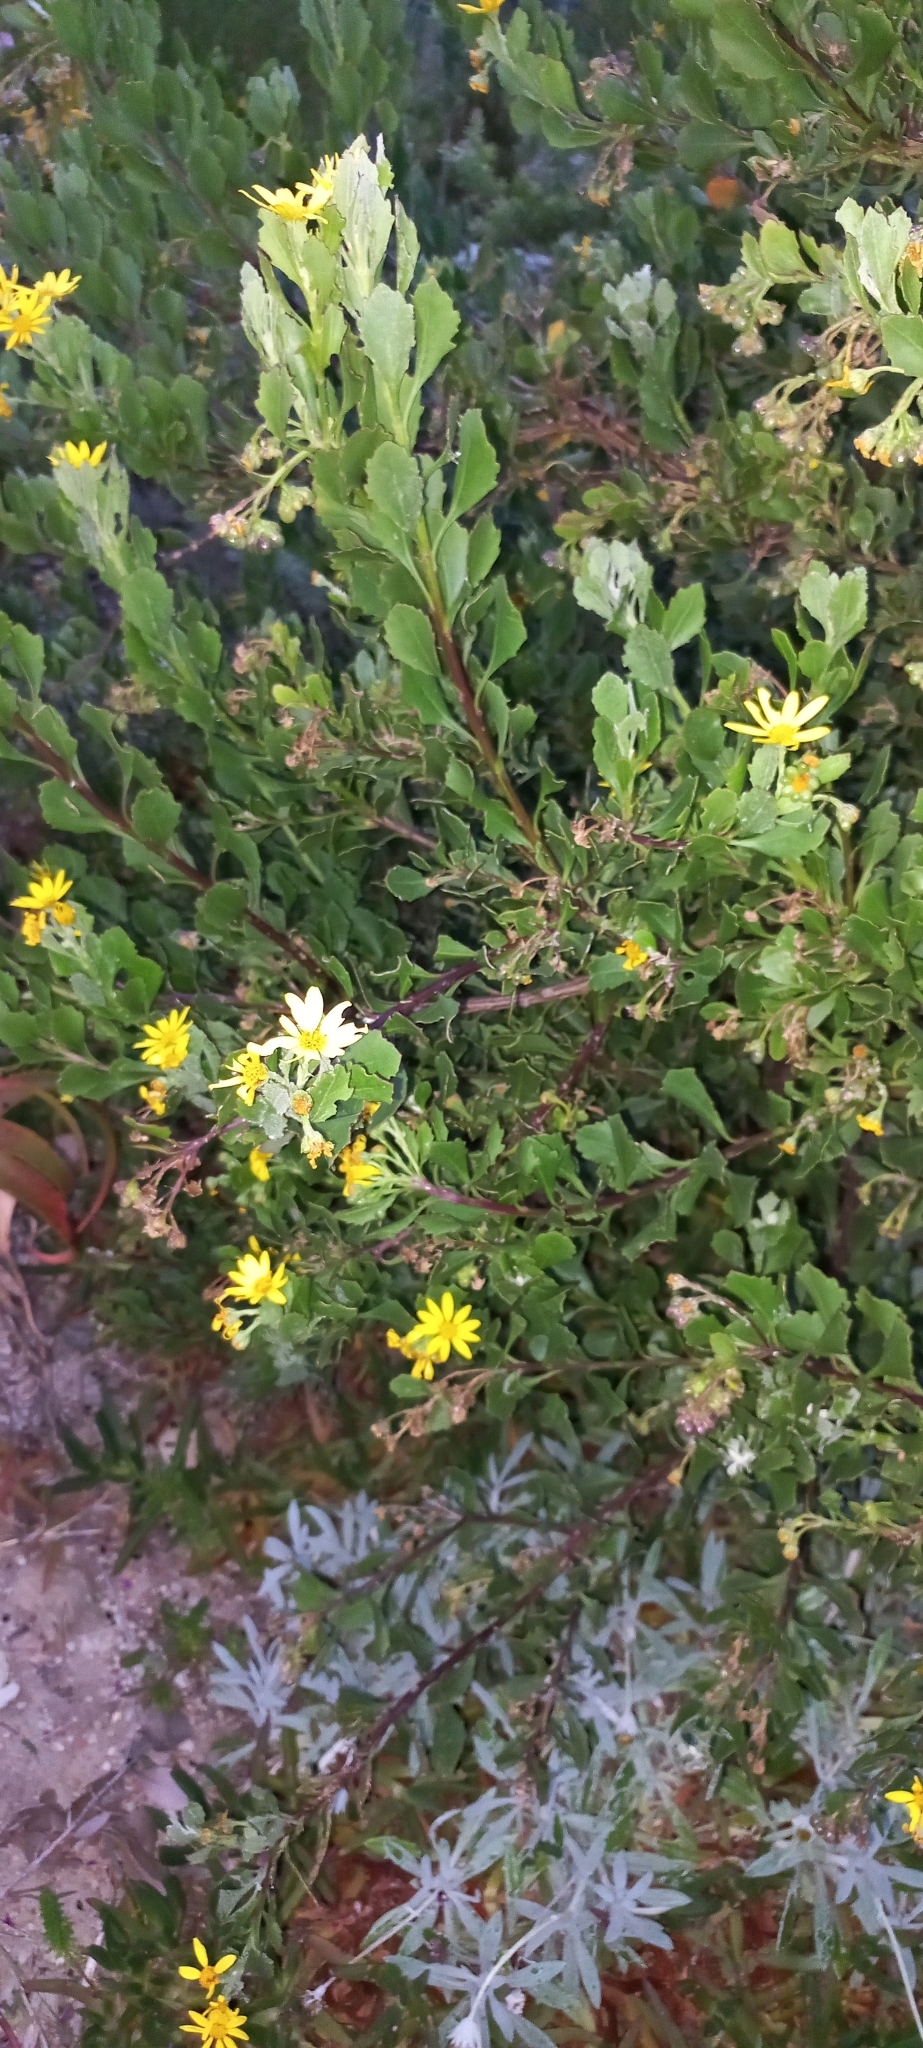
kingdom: Plantae
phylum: Tracheophyta
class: Magnoliopsida
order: Asterales
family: Asteraceae
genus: Osteospermum
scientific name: Osteospermum moniliferum
